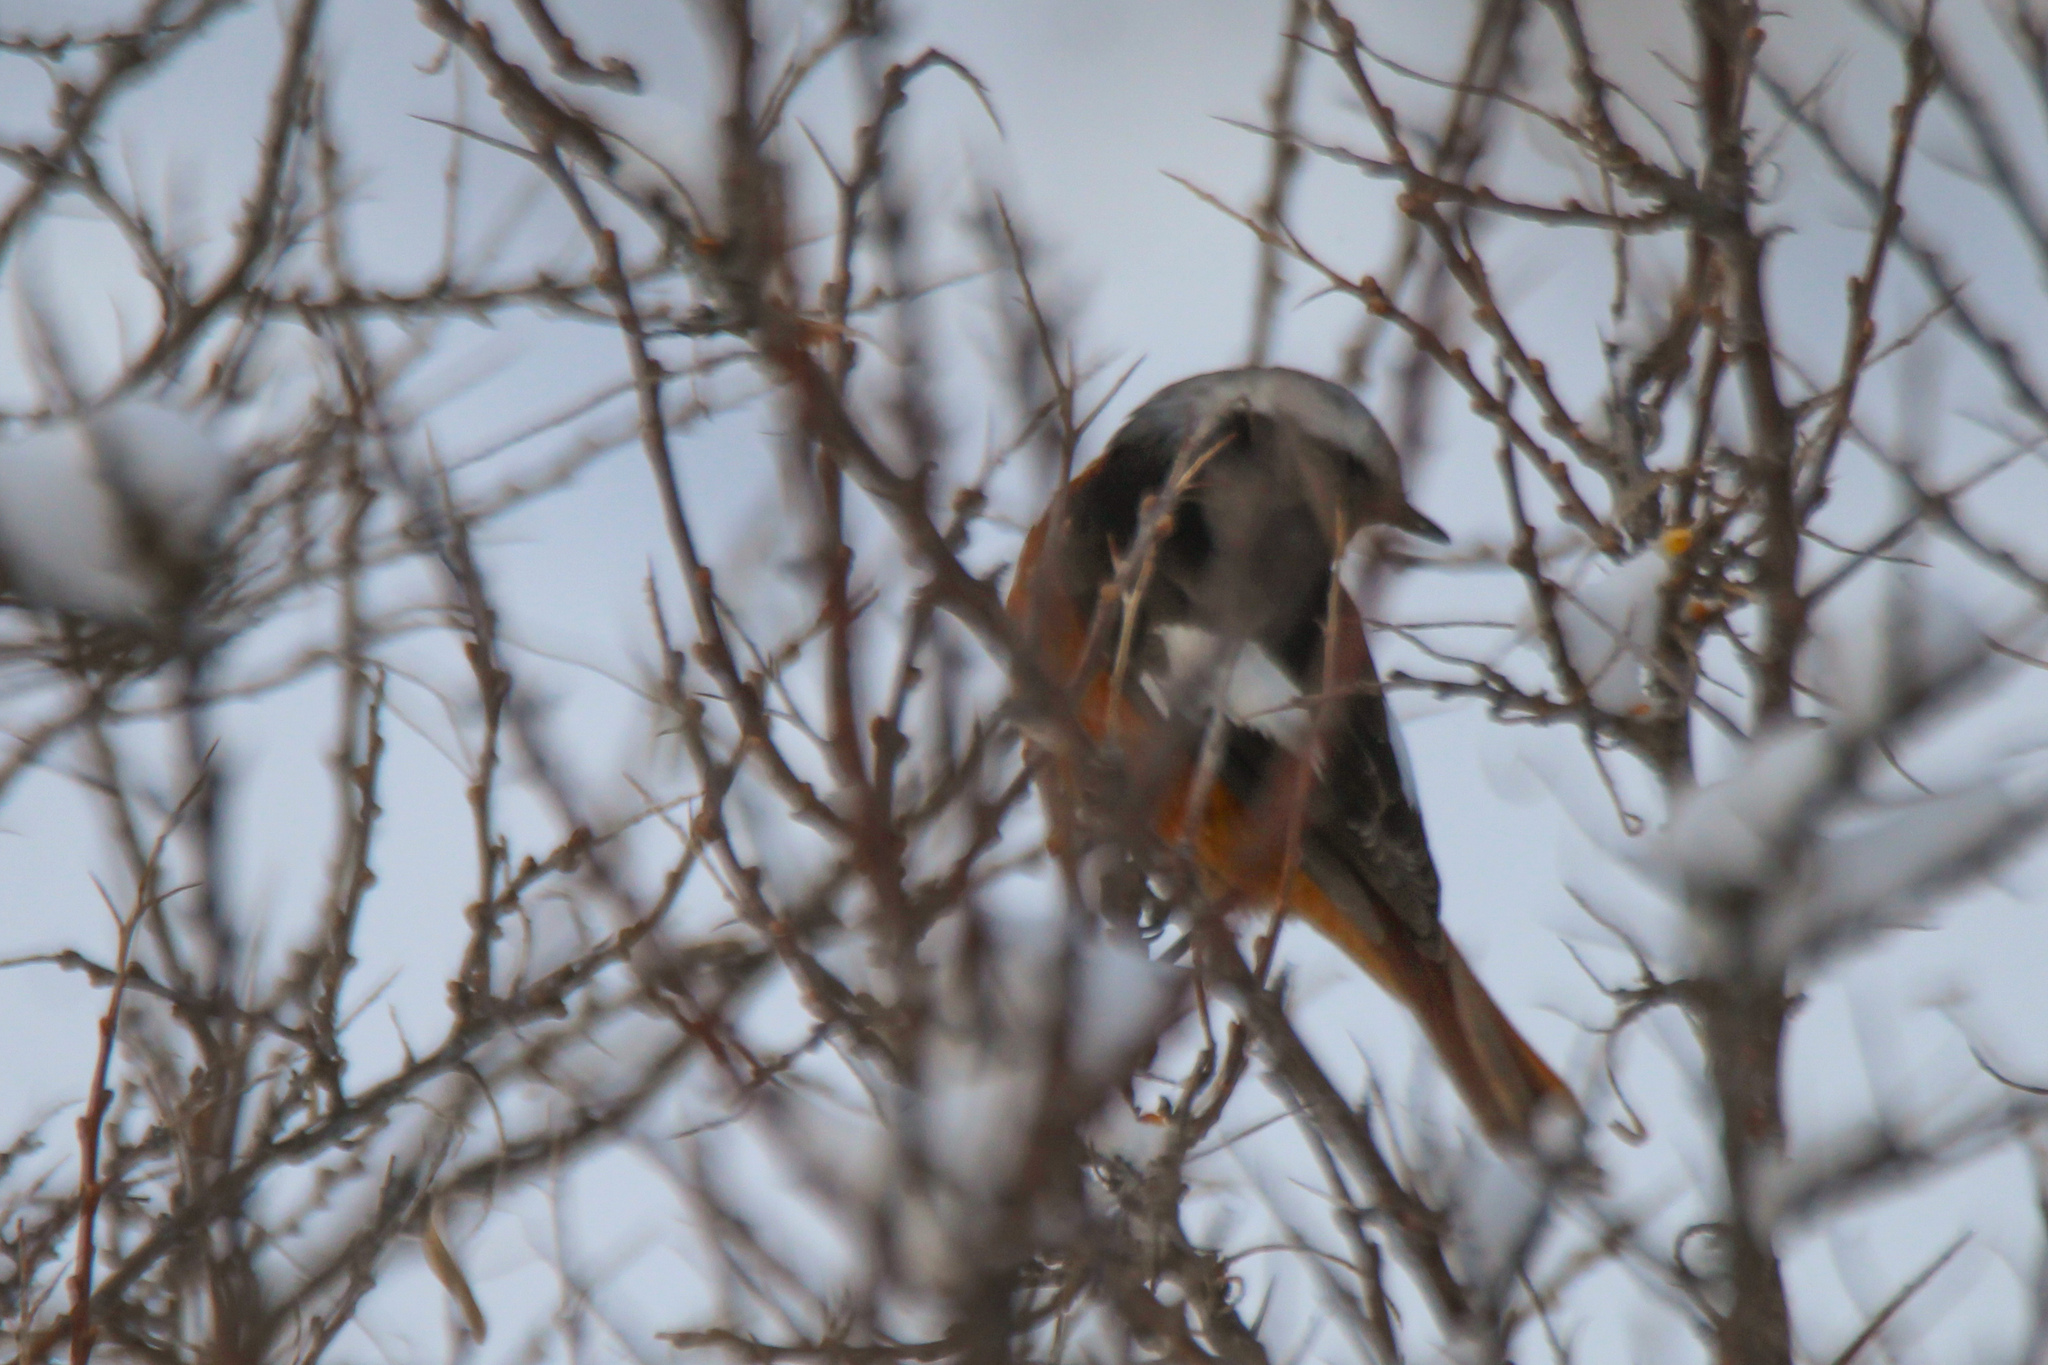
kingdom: Animalia
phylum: Chordata
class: Aves
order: Passeriformes
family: Muscicapidae
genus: Phoenicurus
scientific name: Phoenicurus erythrogastrus
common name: Güldenstädt's redstart
